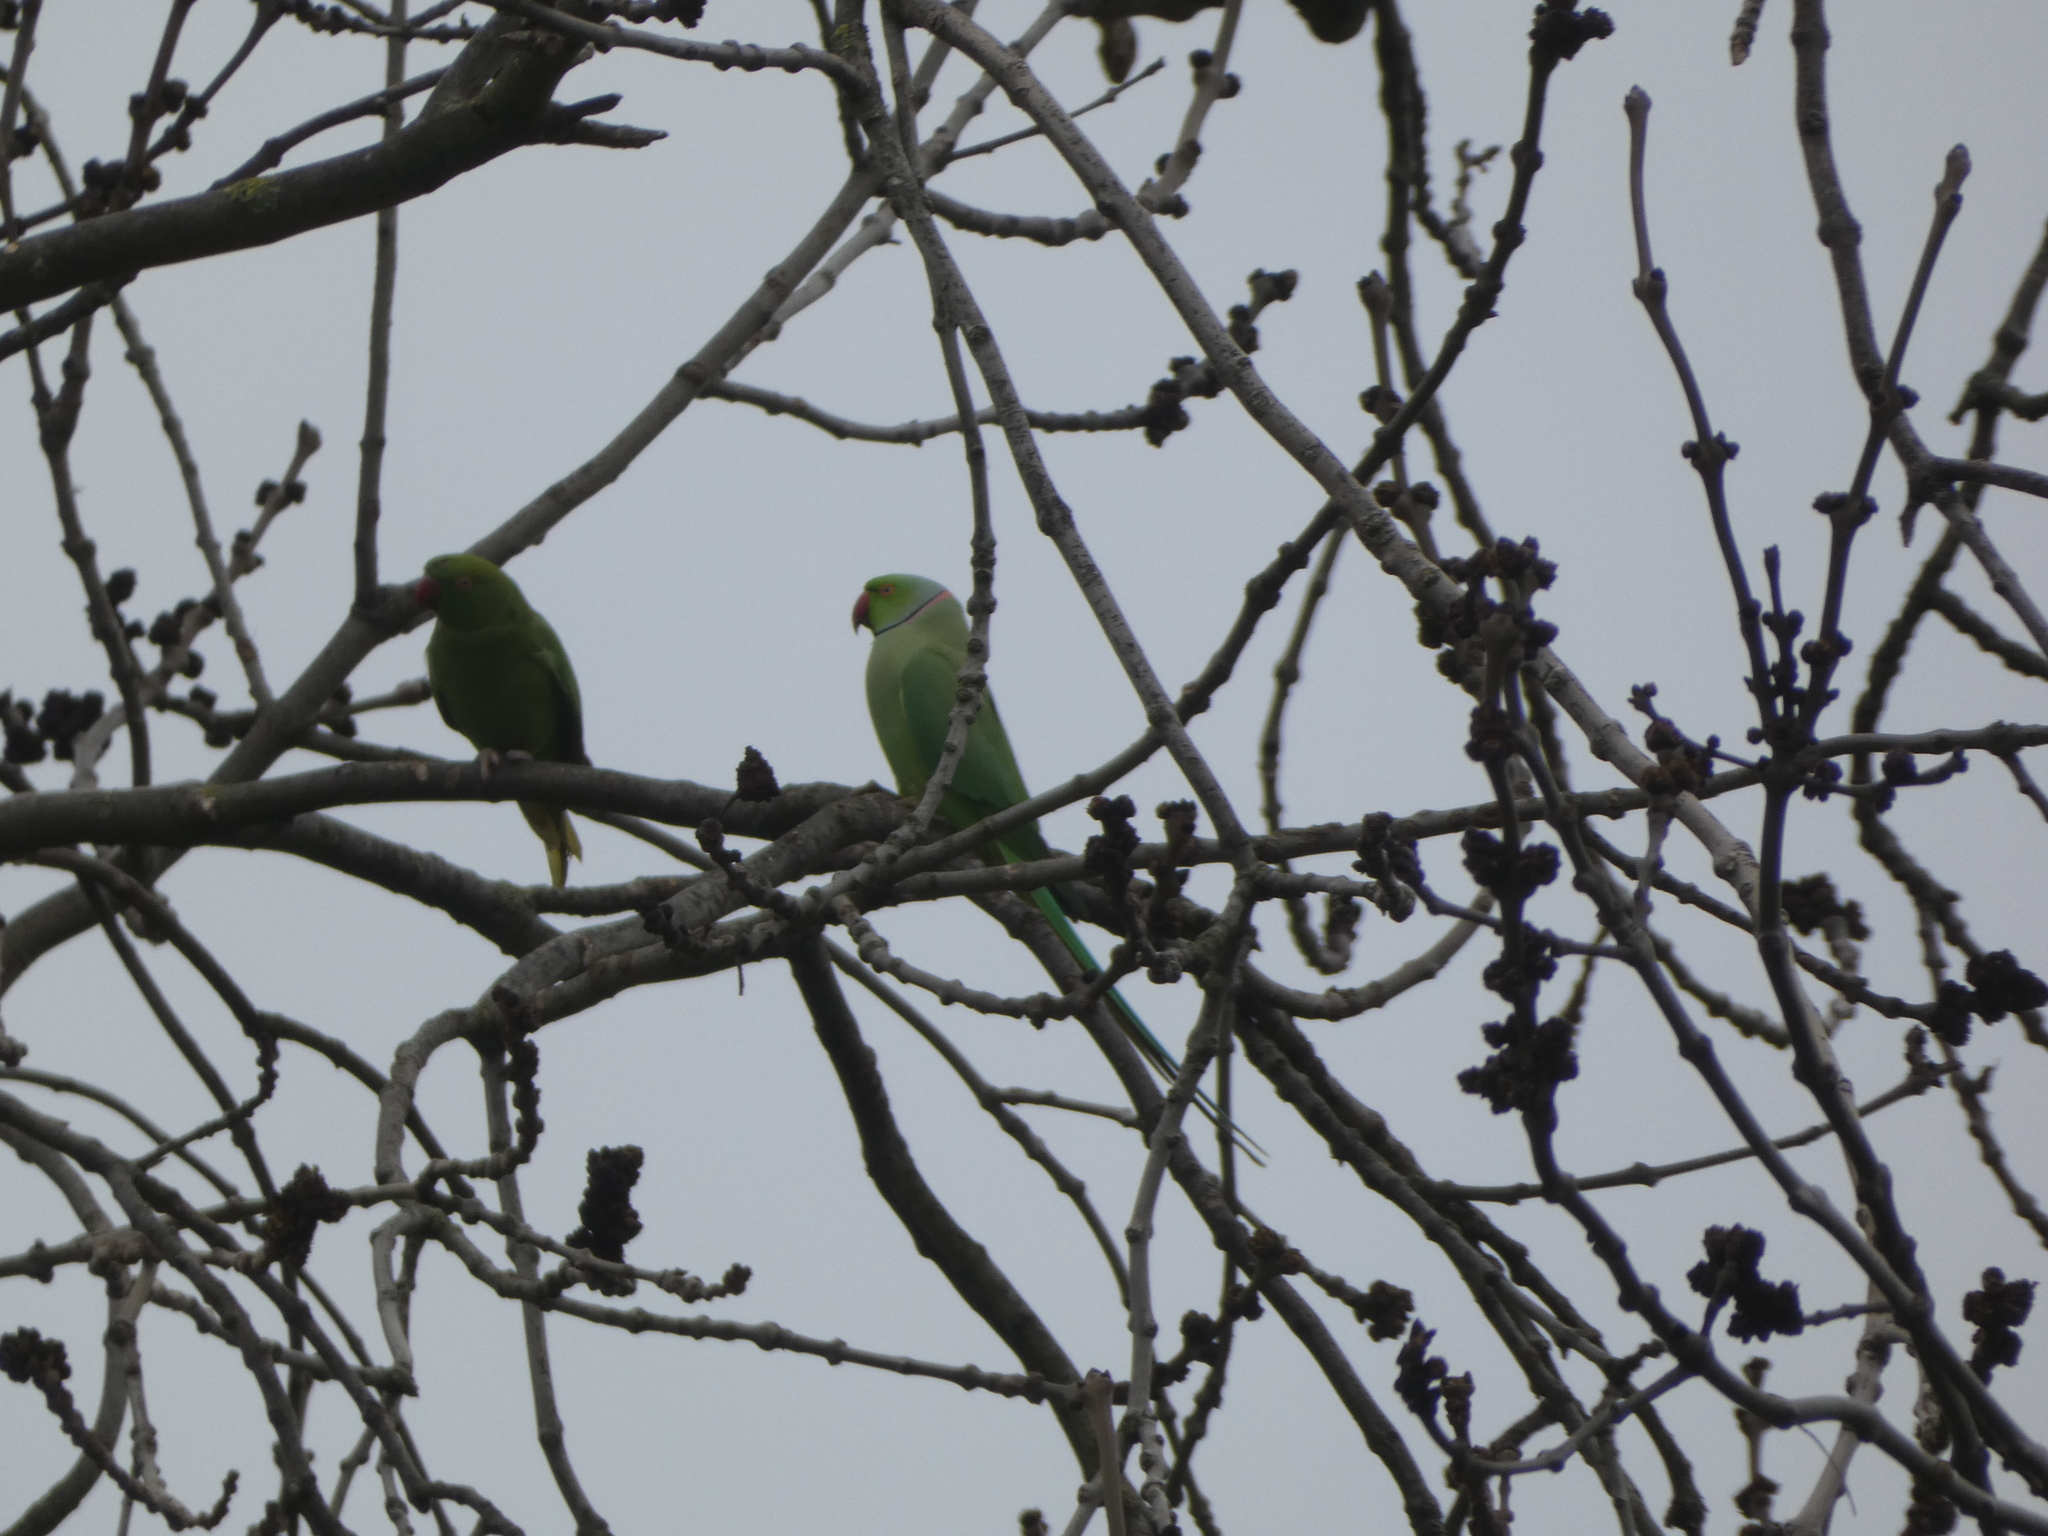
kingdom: Animalia
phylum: Chordata
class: Aves
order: Psittaciformes
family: Psittacidae
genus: Psittacula
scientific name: Psittacula krameri
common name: Rose-ringed parakeet
